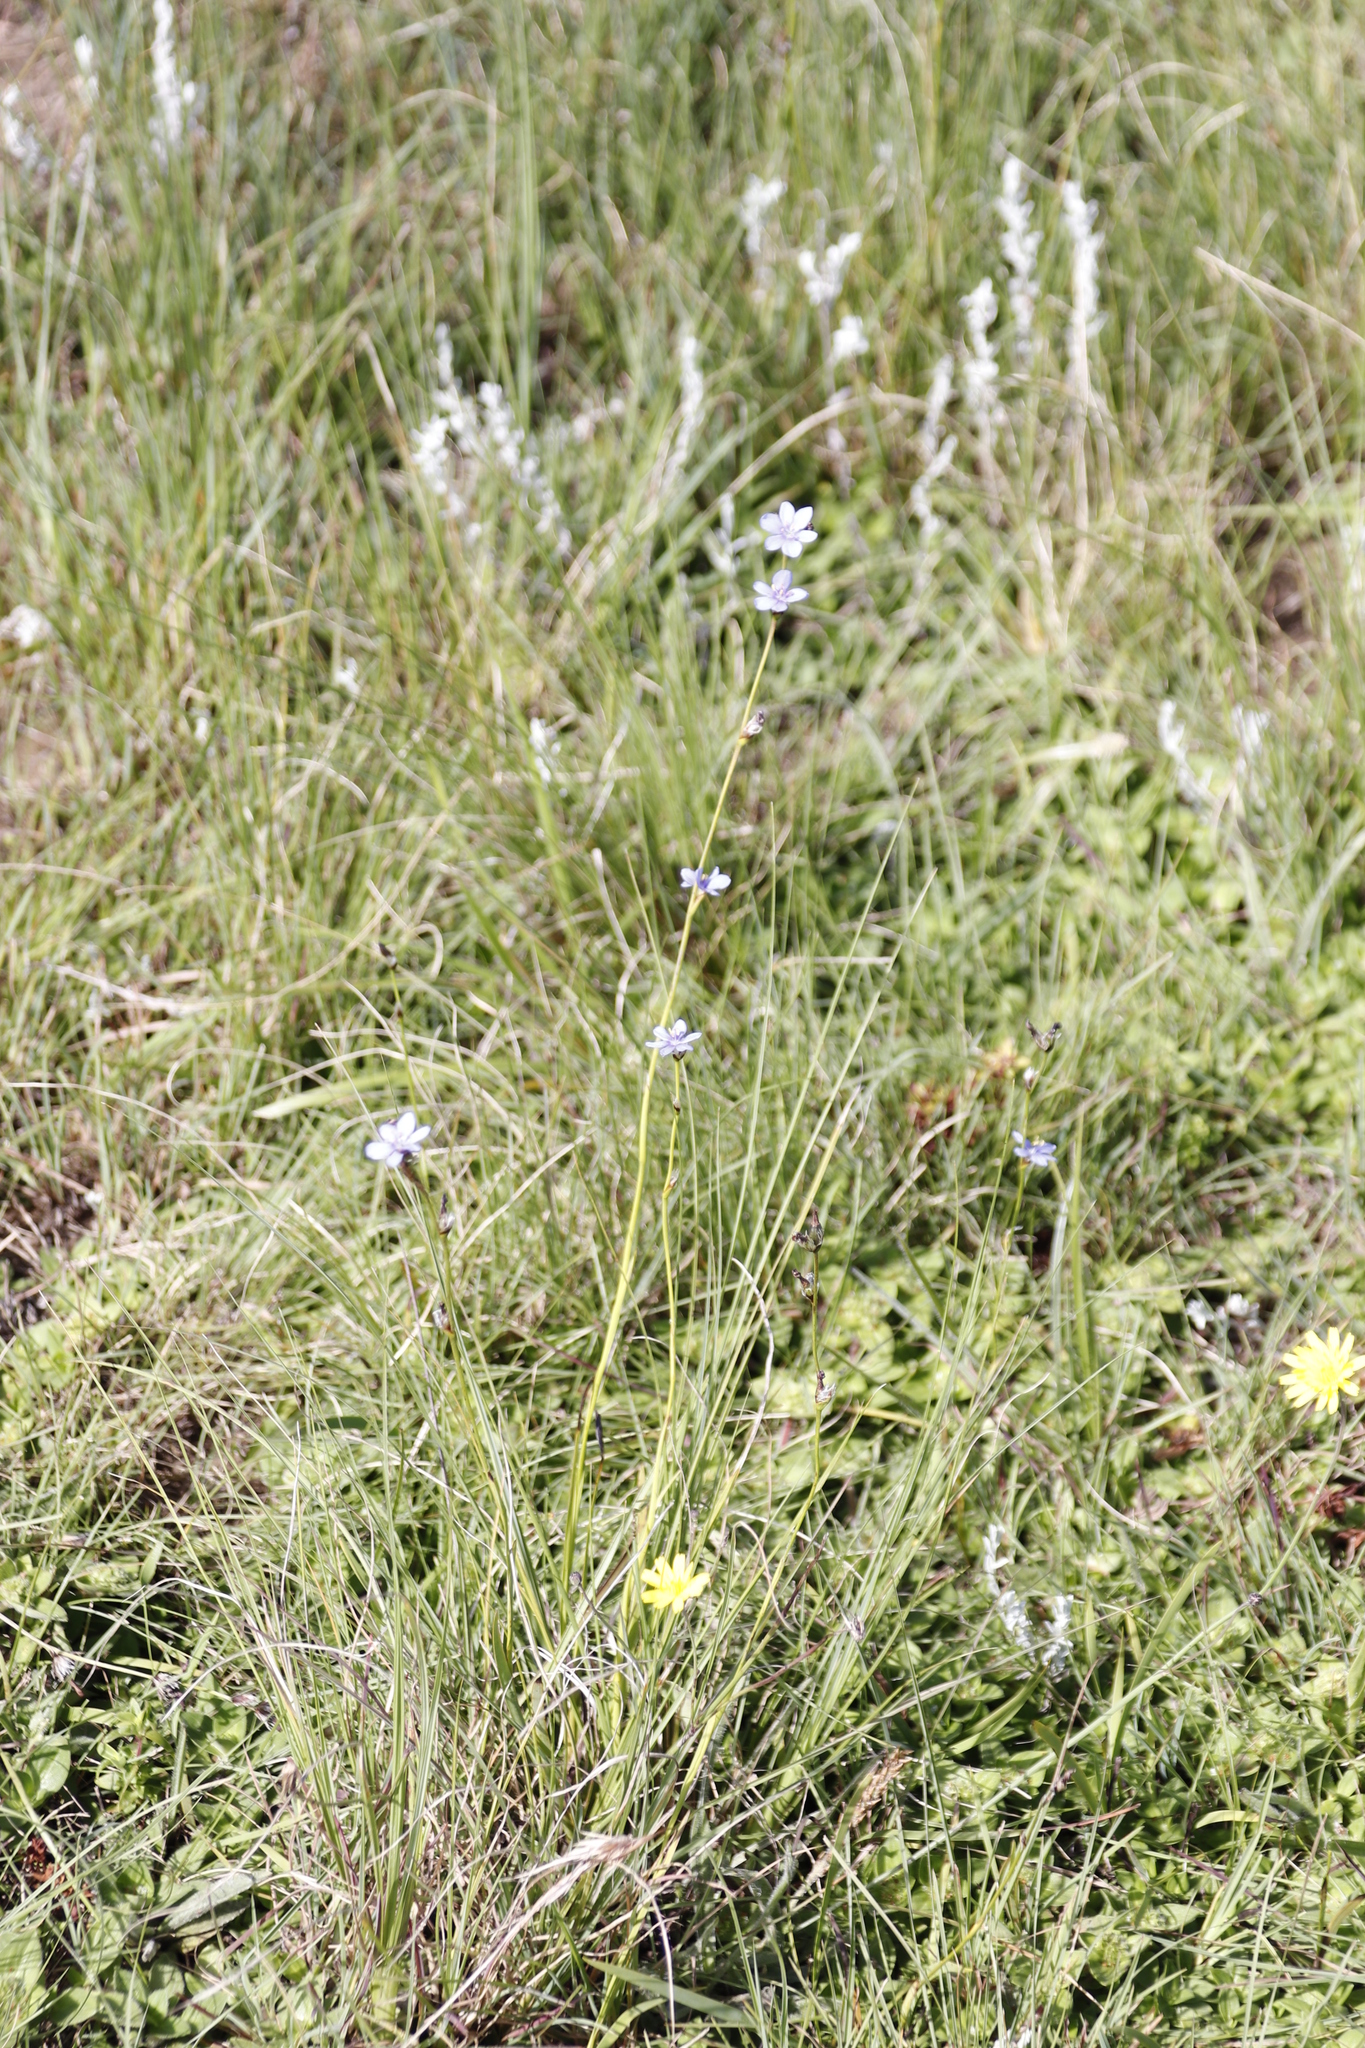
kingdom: Plantae
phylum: Tracheophyta
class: Liliopsida
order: Asparagales
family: Iridaceae
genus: Aristea
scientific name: Aristea torulosa
